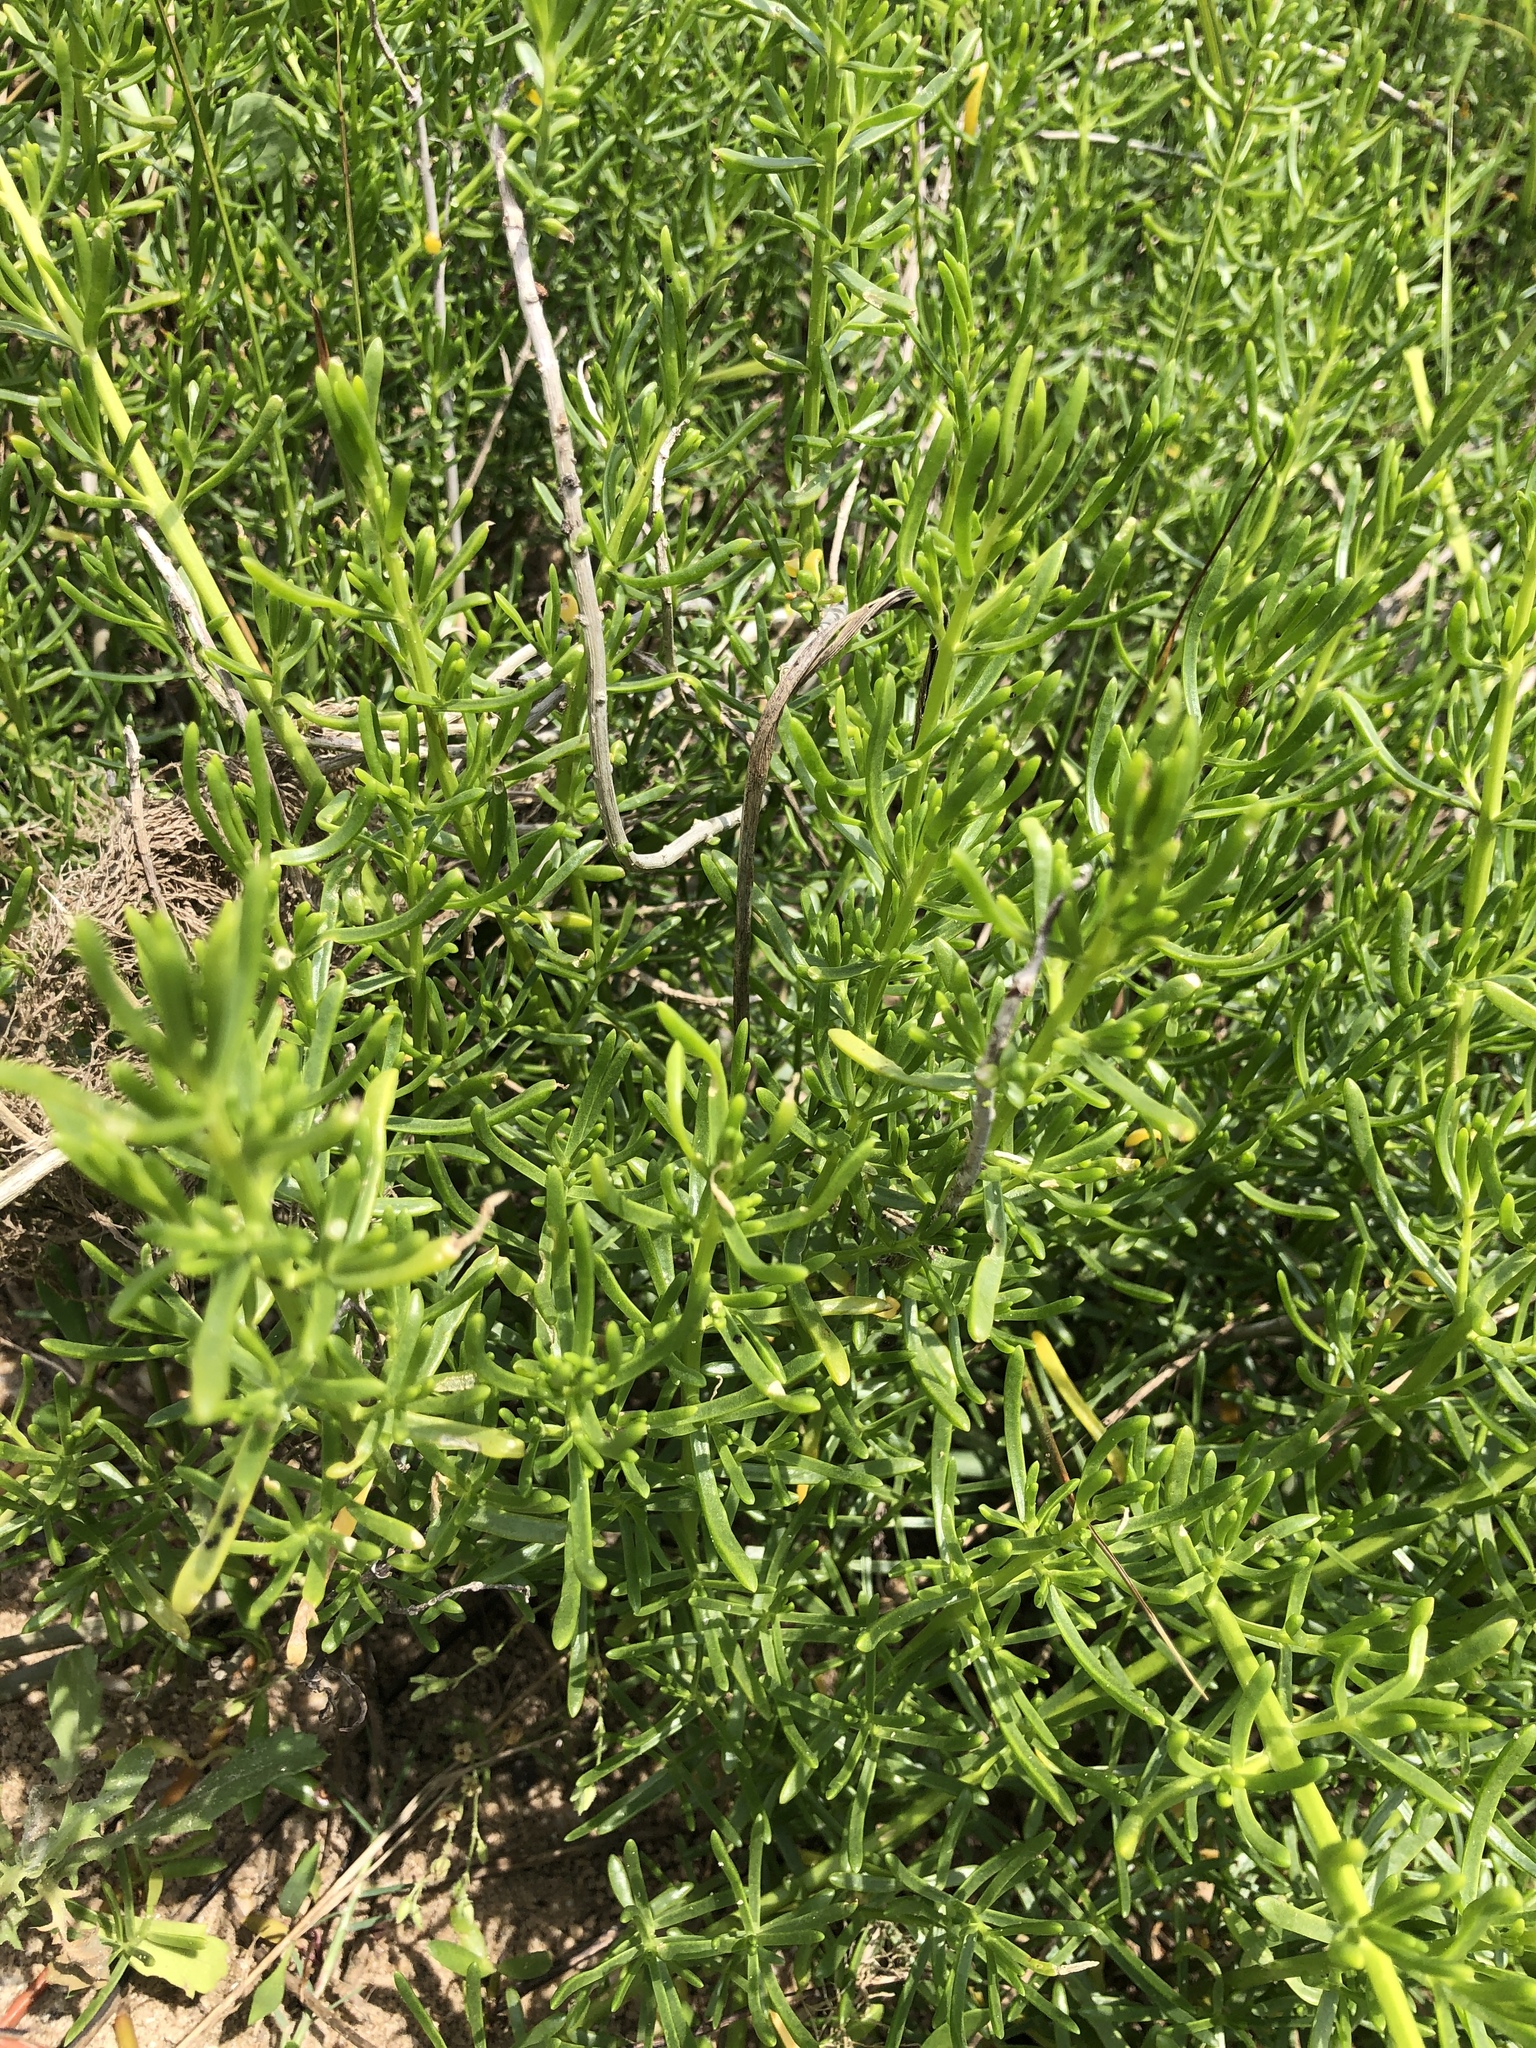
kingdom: Plantae
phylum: Tracheophyta
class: Magnoliopsida
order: Brassicales
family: Bataceae
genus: Batis
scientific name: Batis maritima
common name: Turtleweed
